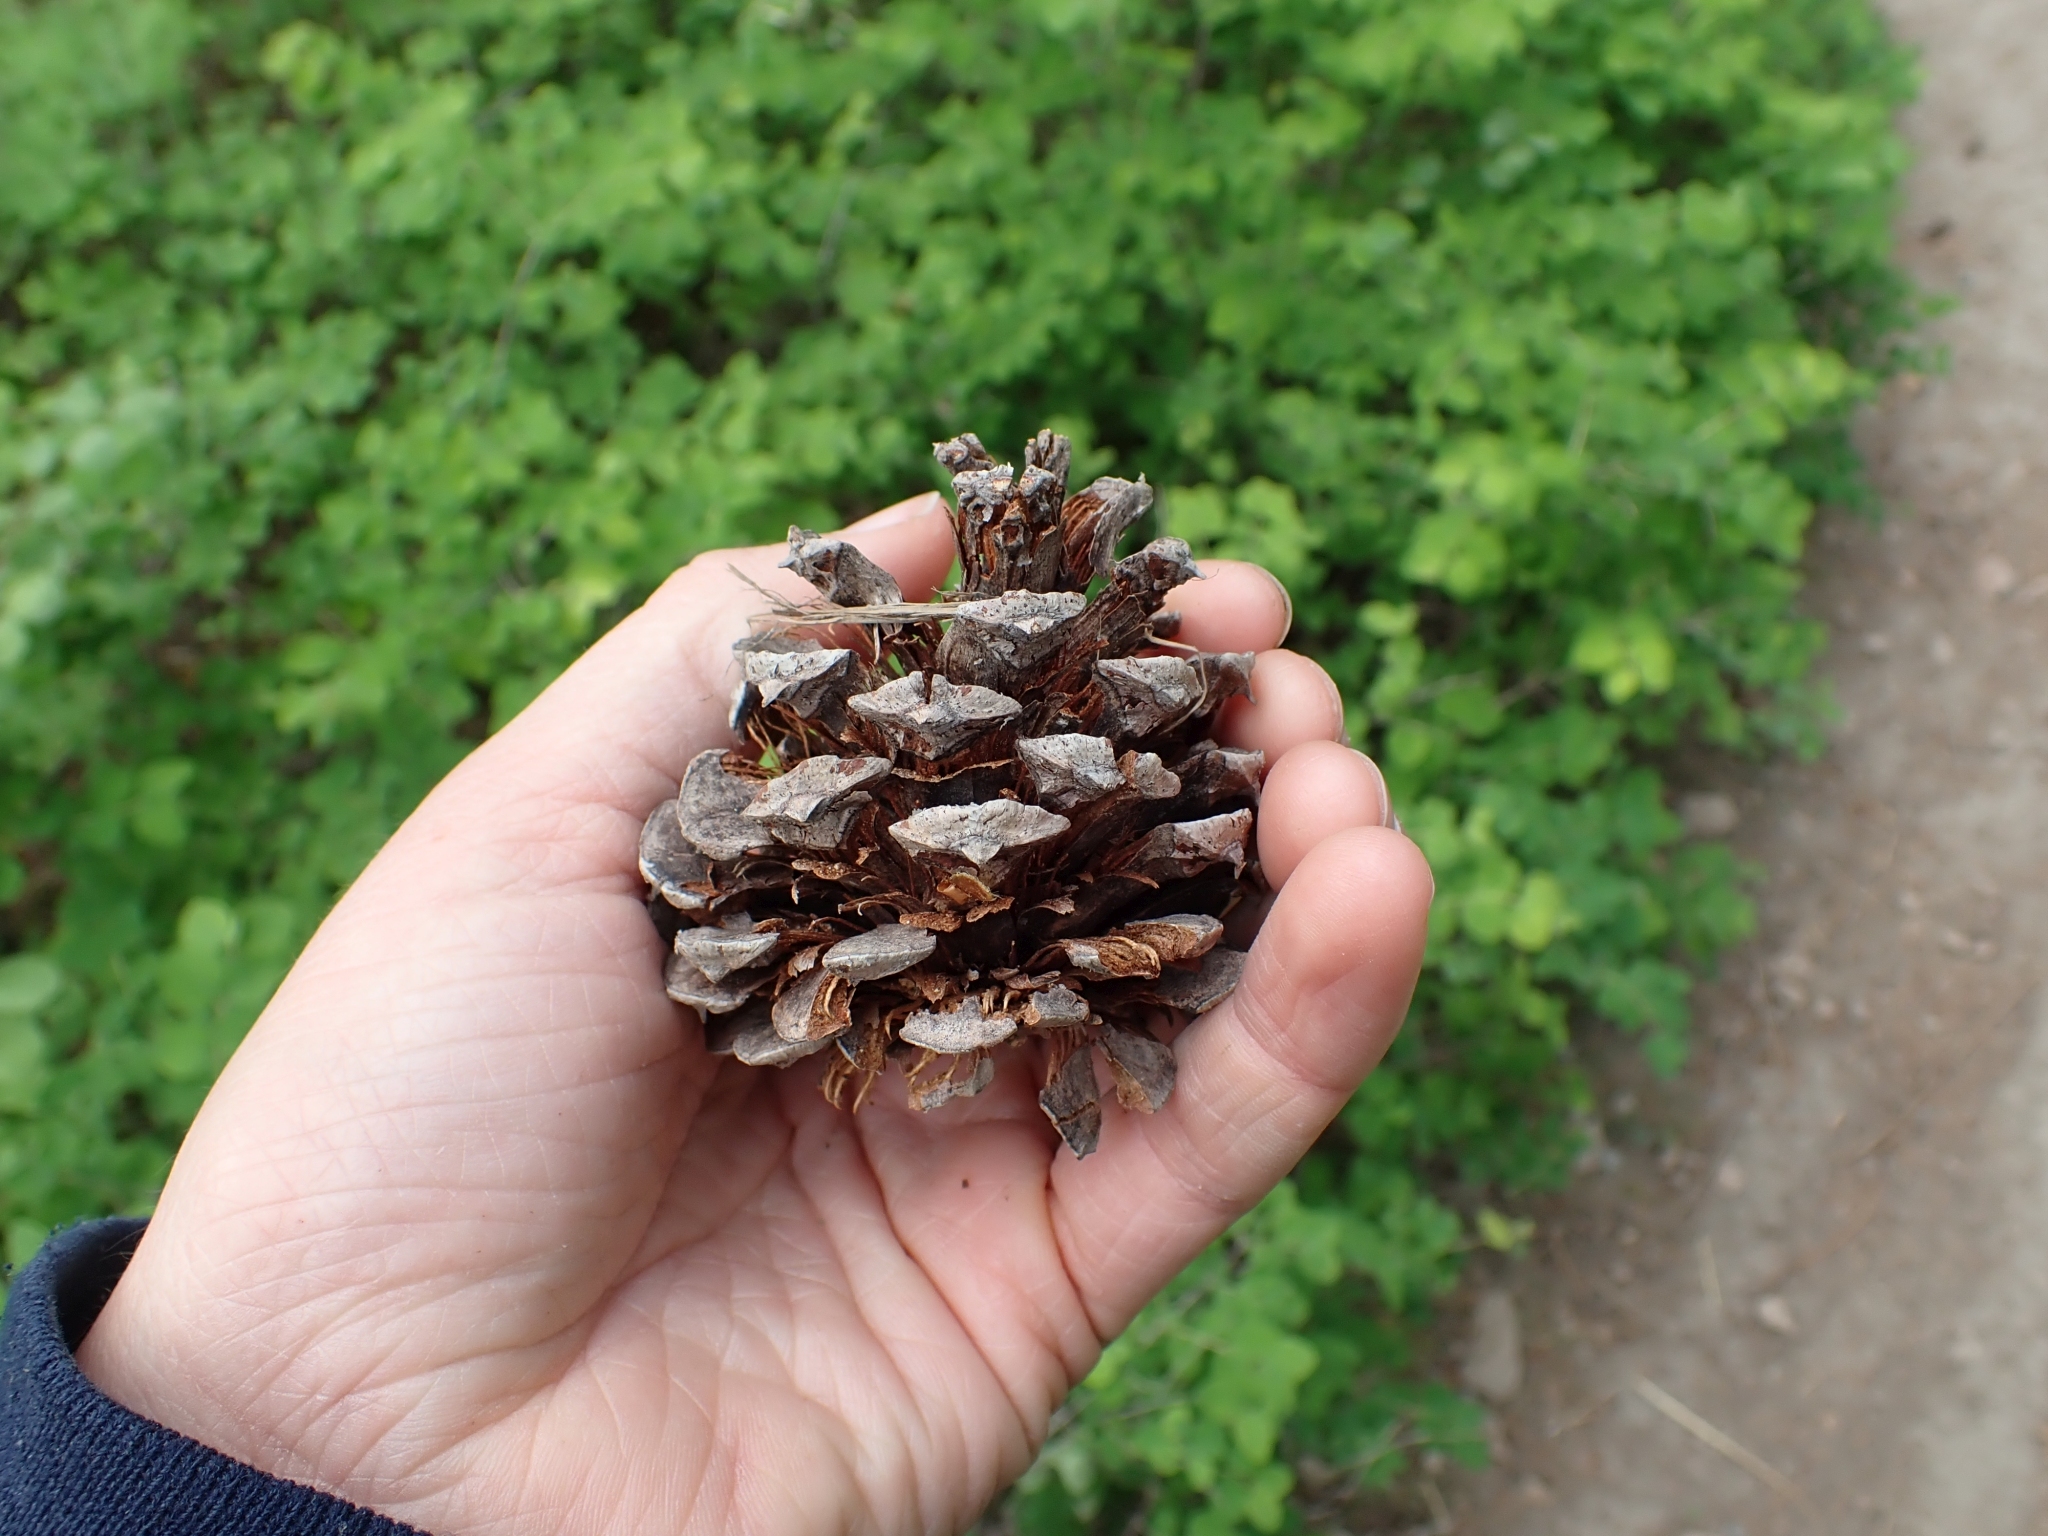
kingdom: Plantae
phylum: Tracheophyta
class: Pinopsida
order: Pinales
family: Pinaceae
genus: Pinus
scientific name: Pinus ponderosa
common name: Western yellow-pine
